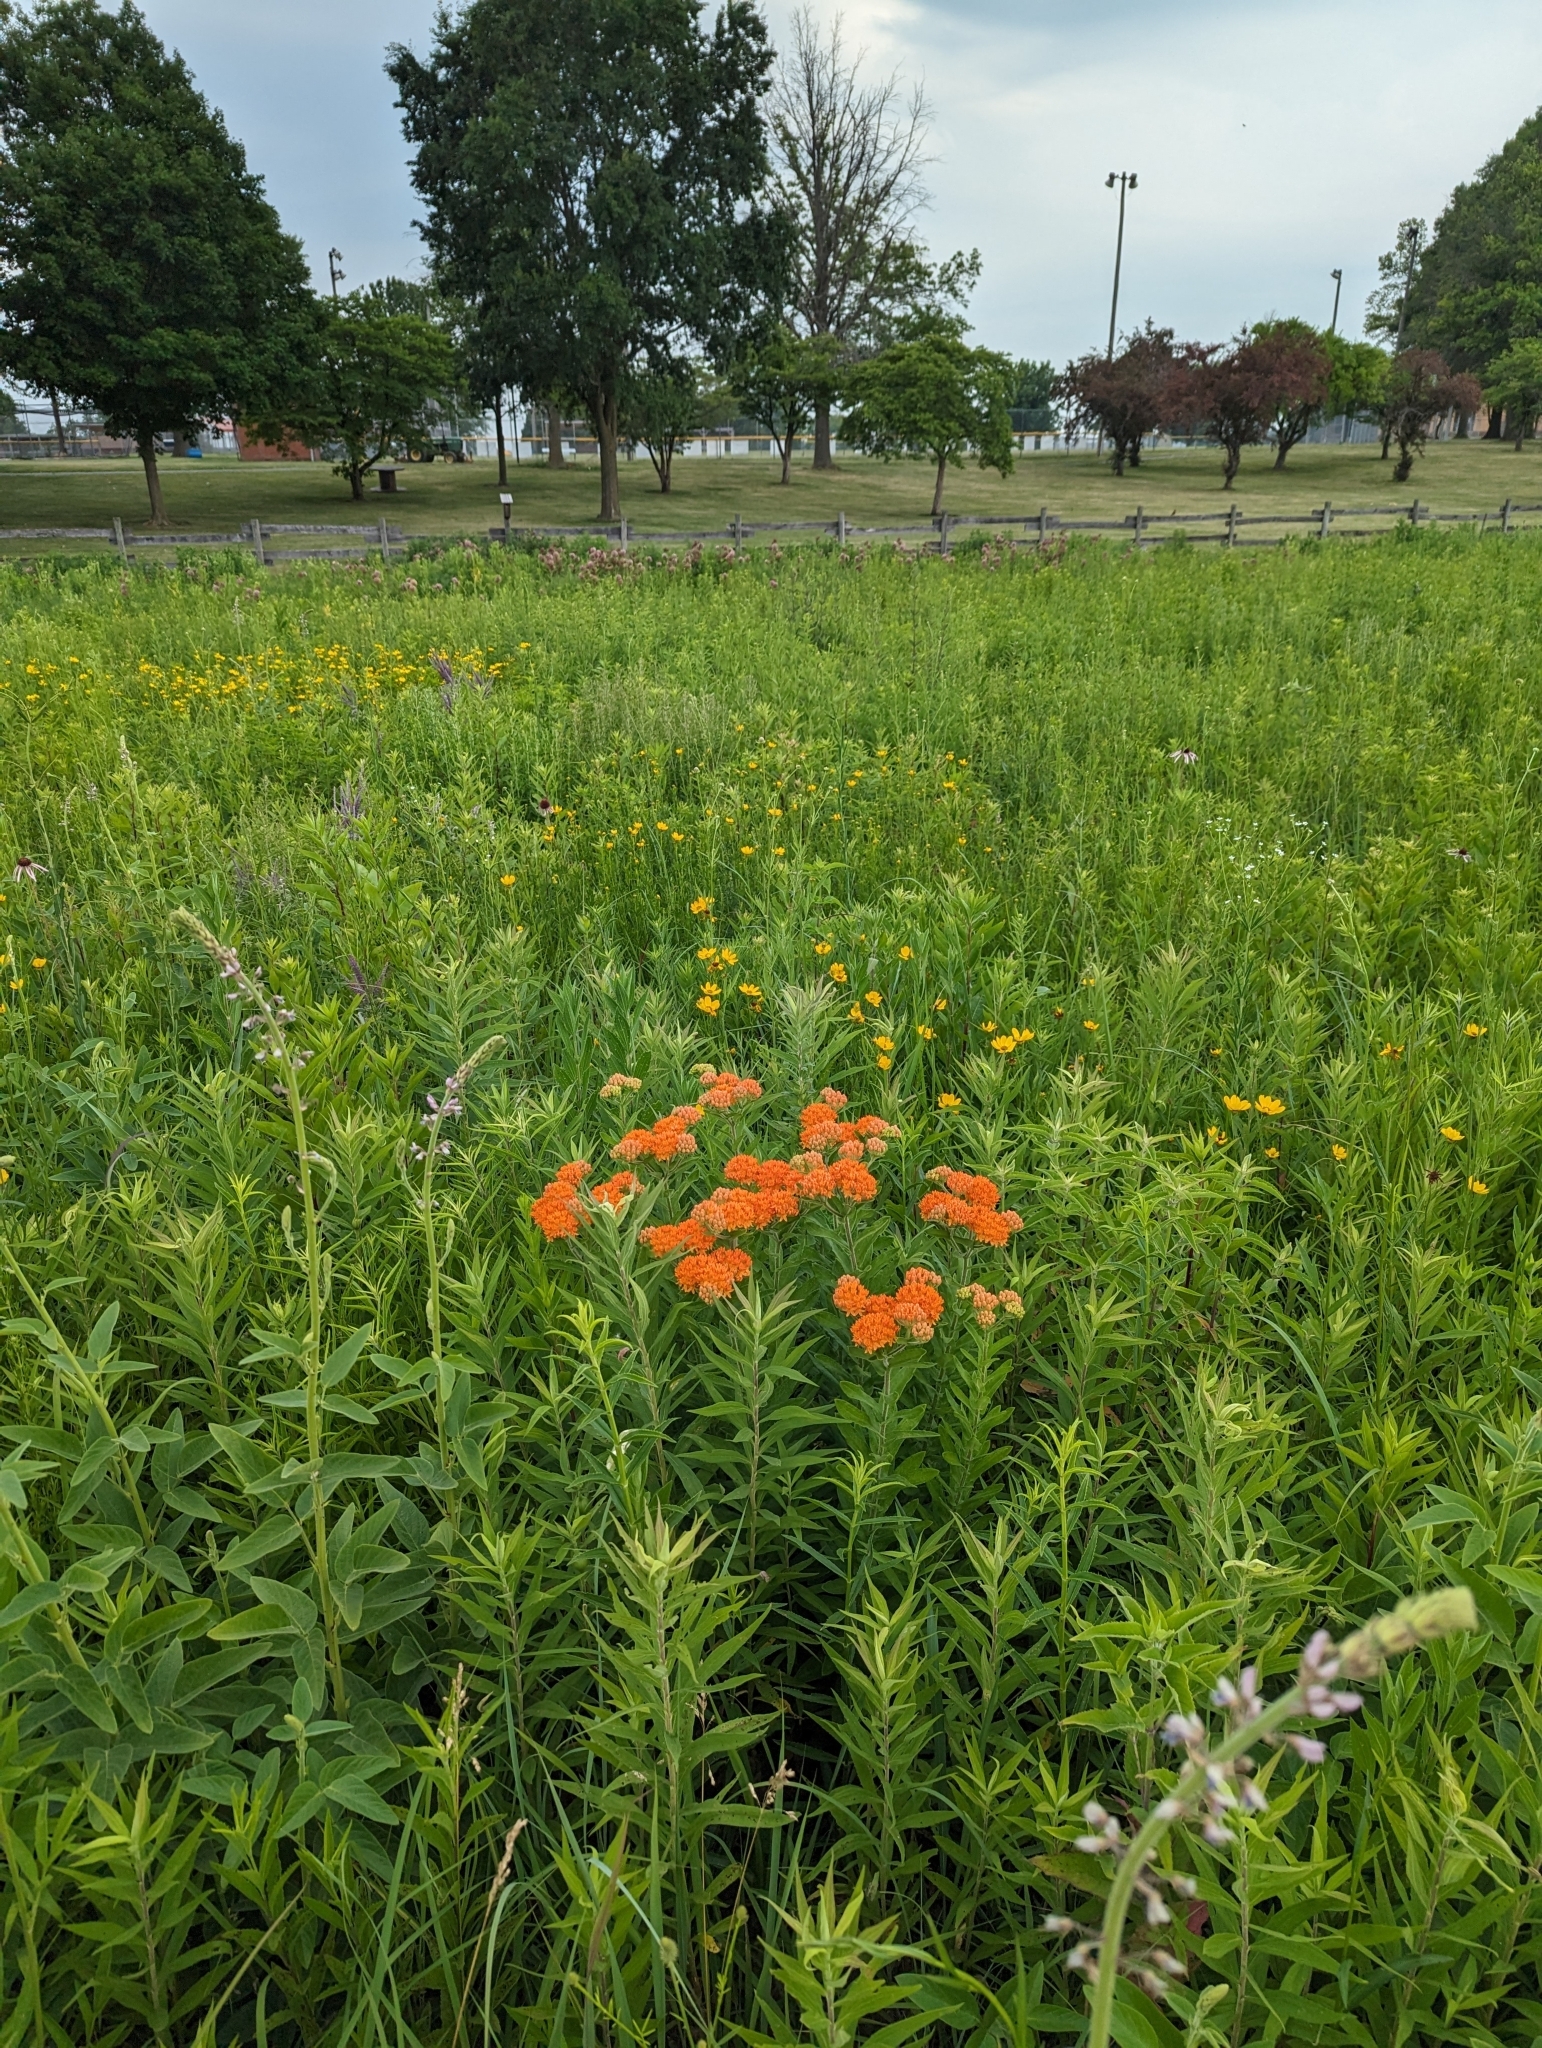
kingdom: Plantae
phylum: Tracheophyta
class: Magnoliopsida
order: Gentianales
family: Apocynaceae
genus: Asclepias
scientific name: Asclepias tuberosa
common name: Butterfly milkweed
